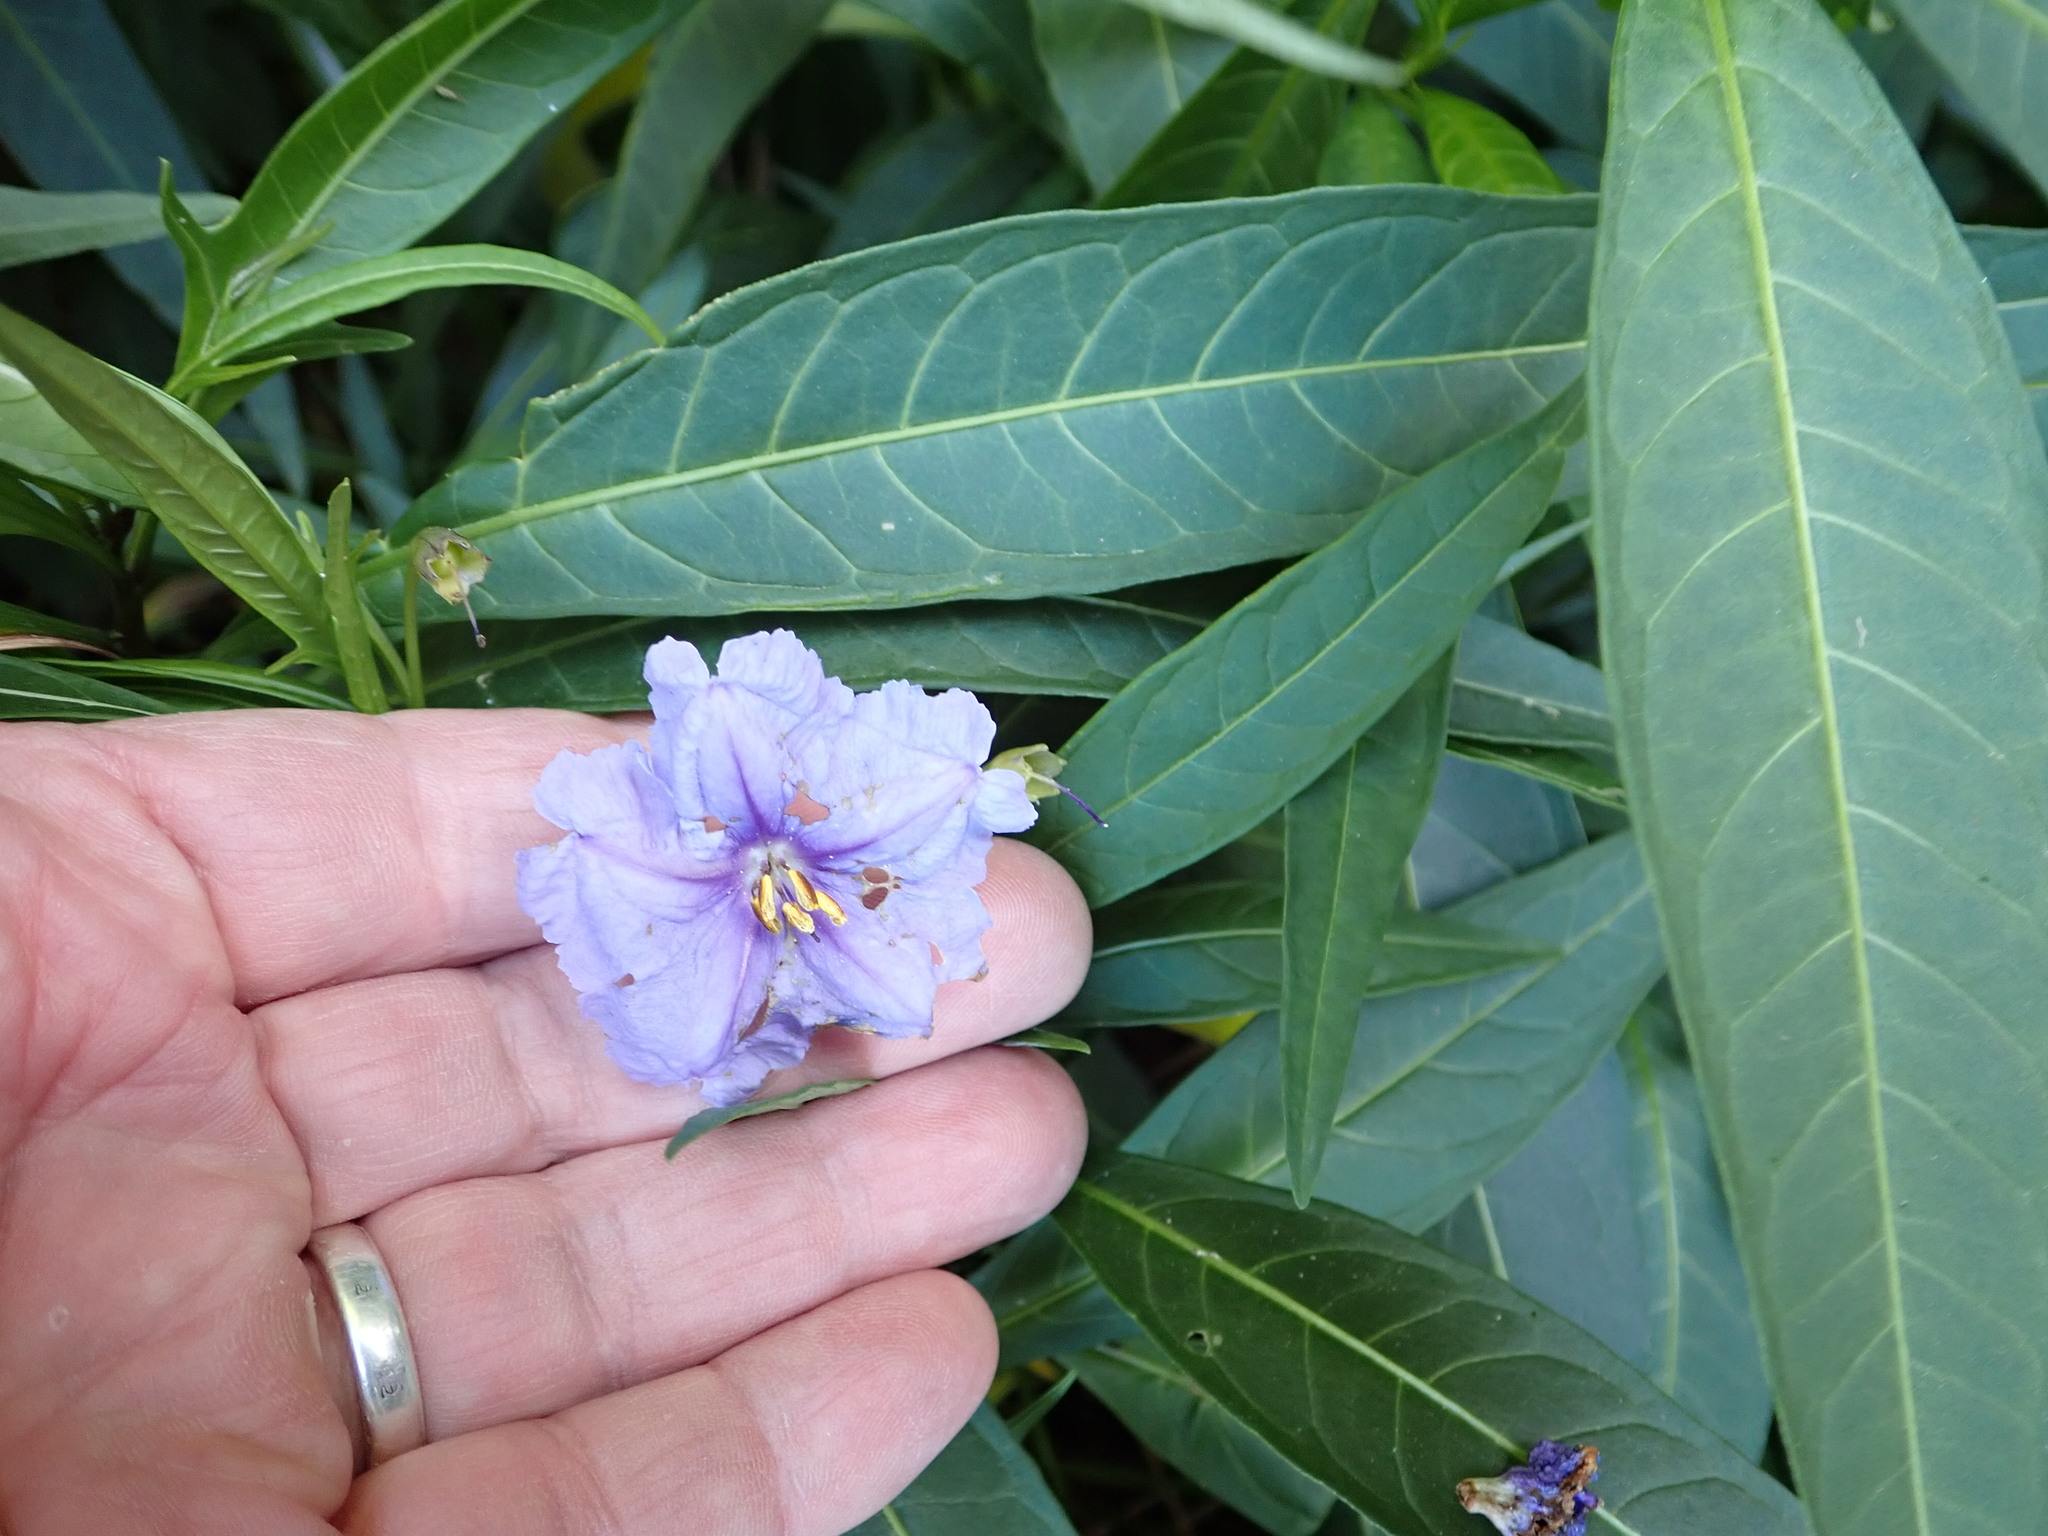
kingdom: Plantae
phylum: Tracheophyta
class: Magnoliopsida
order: Solanales
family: Solanaceae
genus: Solanum
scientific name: Solanum laciniatum
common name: Kangaroo-apple
